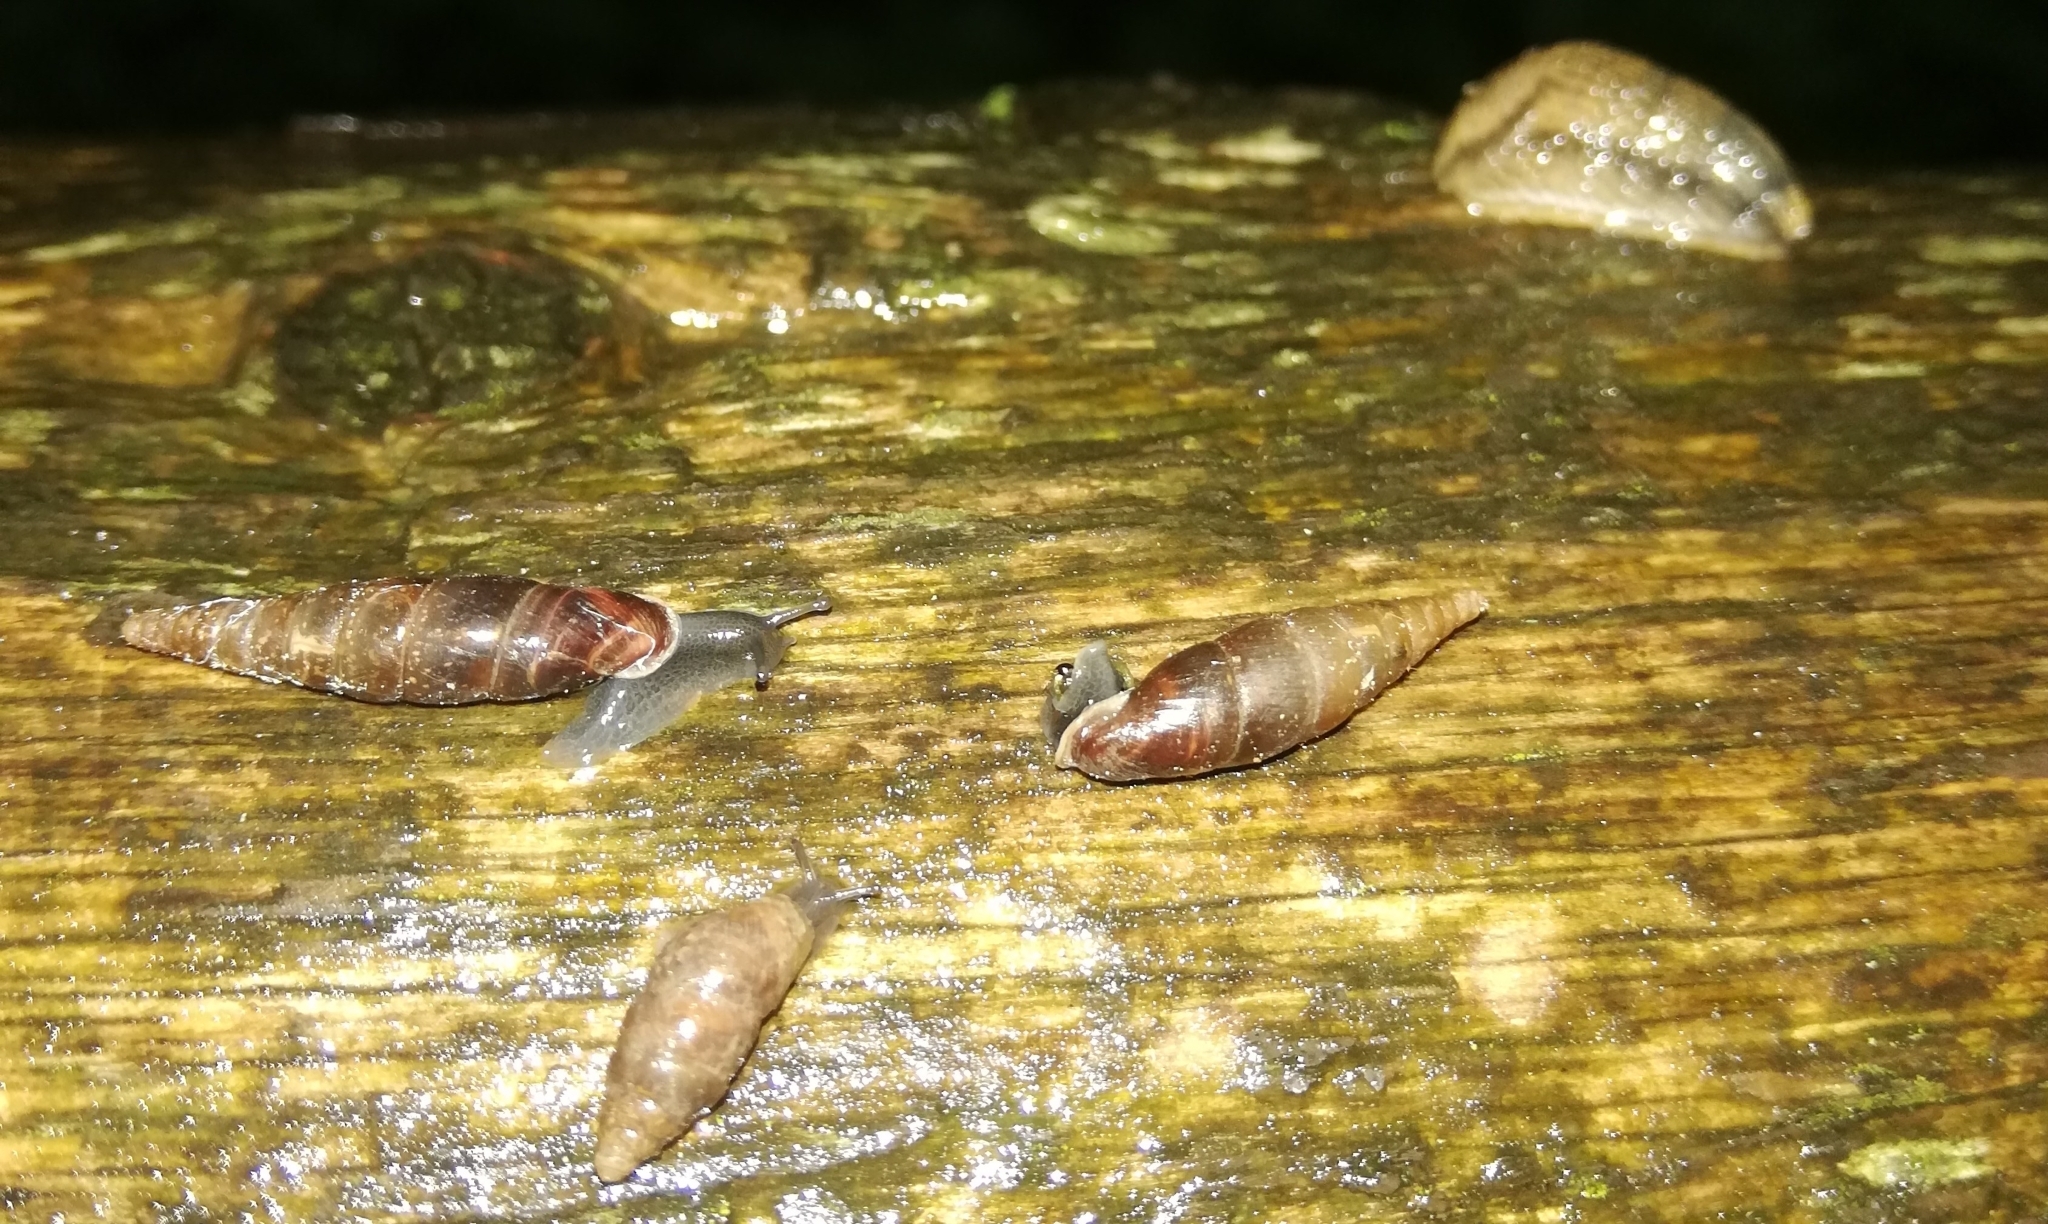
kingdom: Animalia
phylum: Mollusca
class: Gastropoda
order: Stylommatophora
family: Clausiliidae
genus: Cochlodina
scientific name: Cochlodina laminata
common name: Plaited door snail
